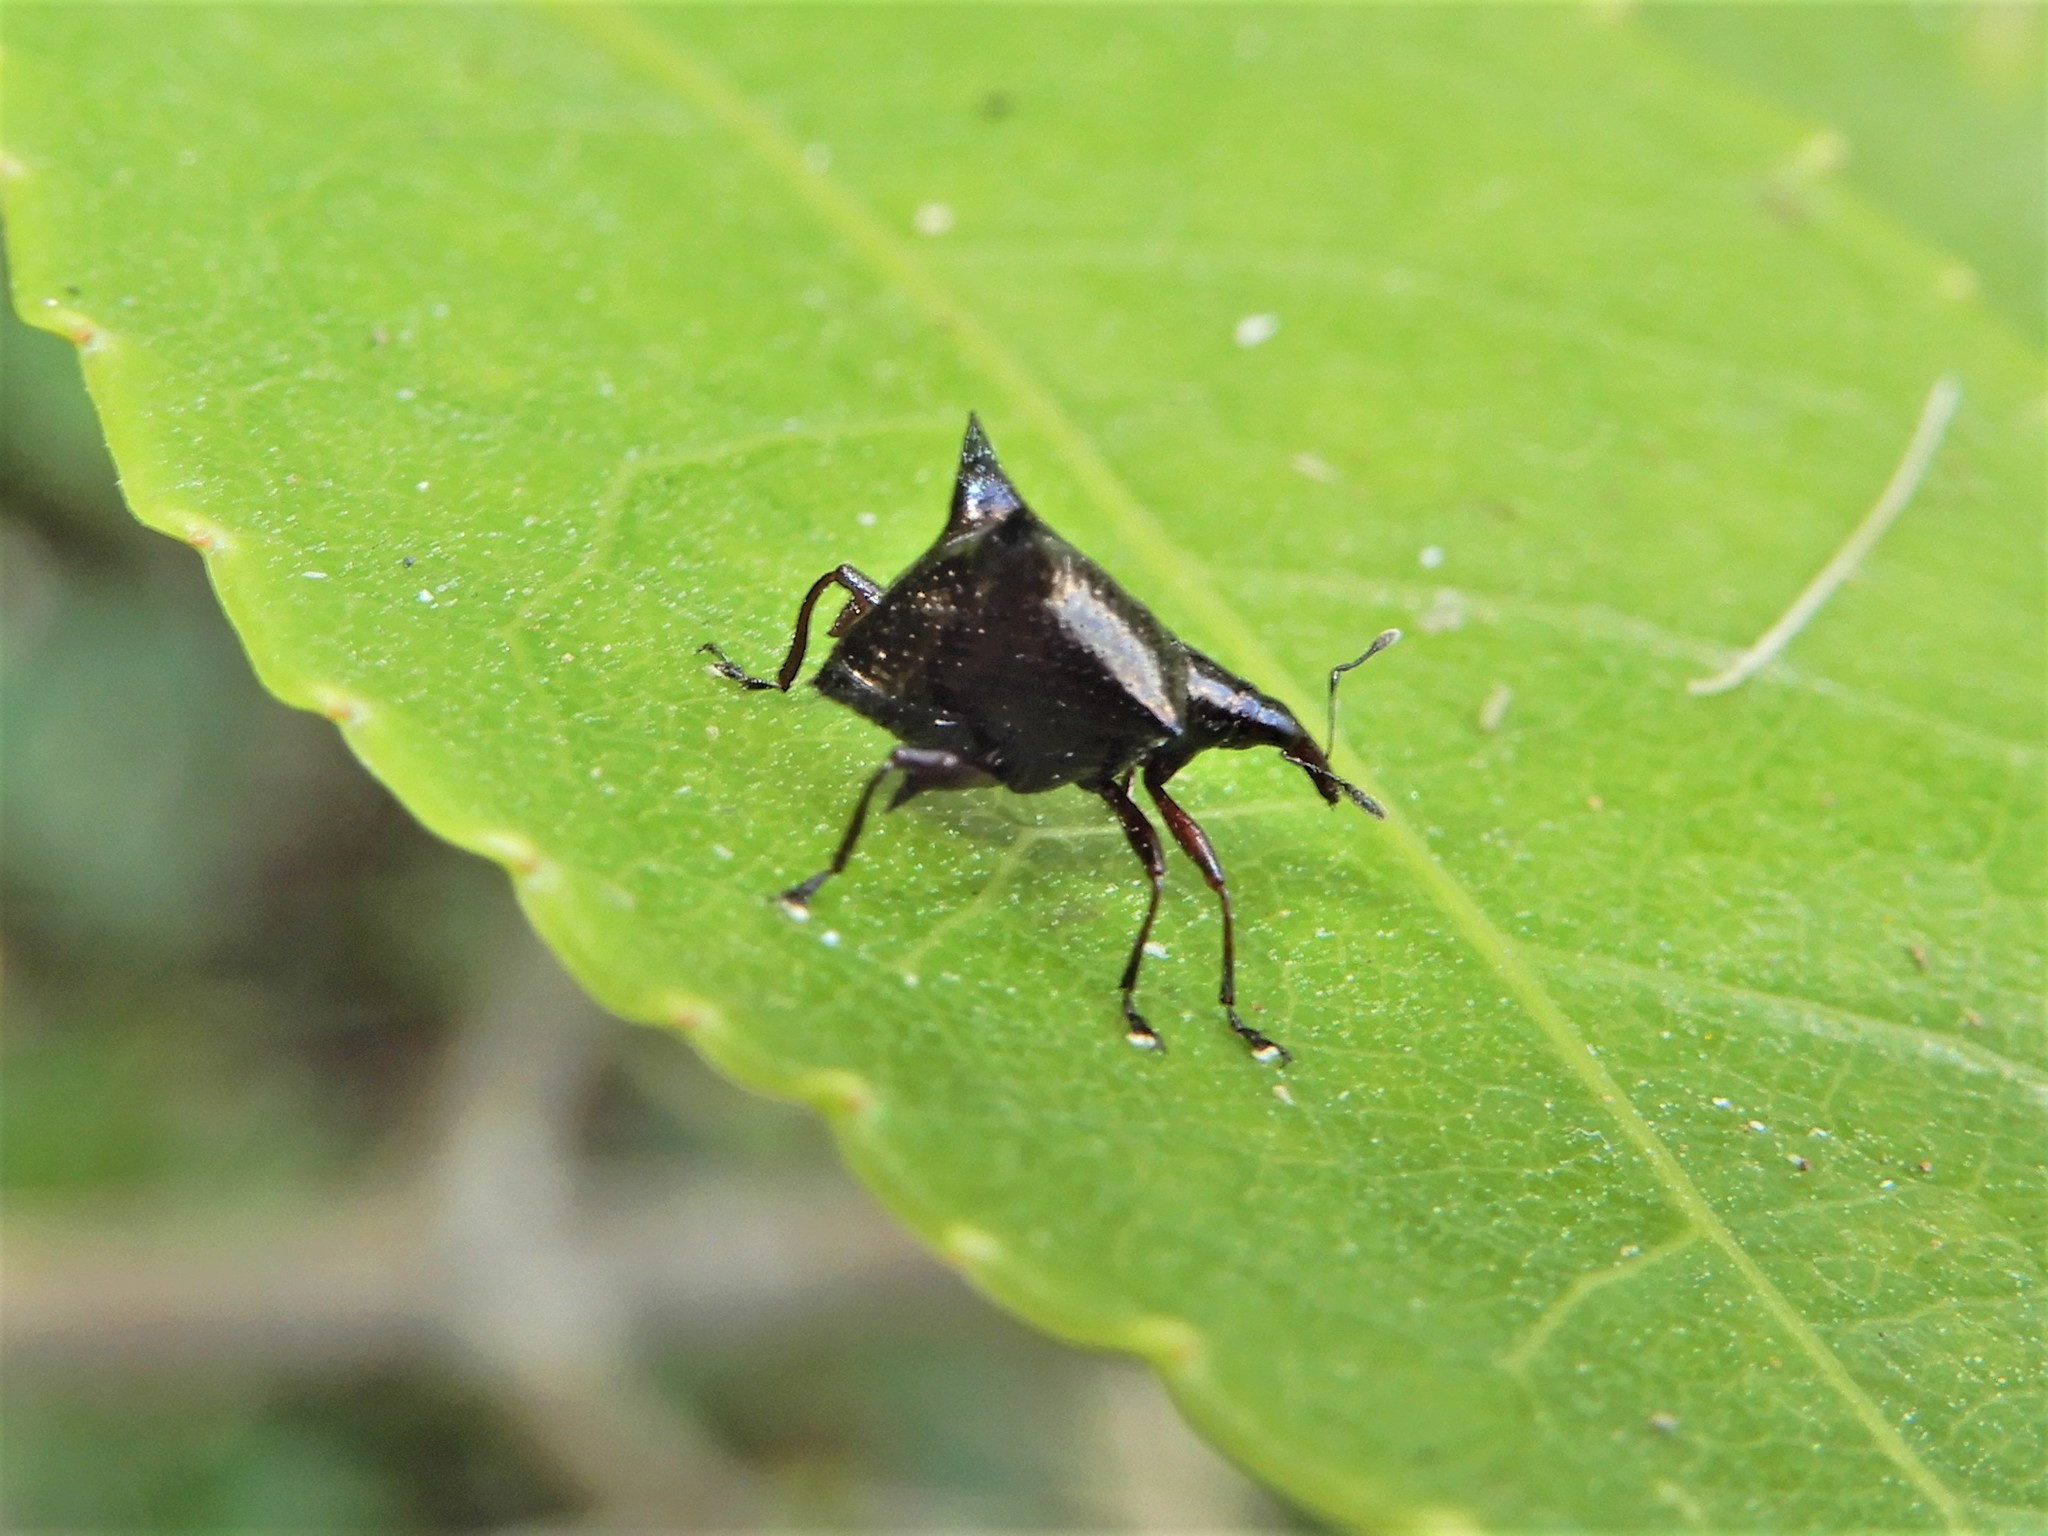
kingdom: Animalia
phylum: Arthropoda
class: Insecta
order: Coleoptera
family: Curculionidae
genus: Scolopterus
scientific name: Scolopterus penicillatus
